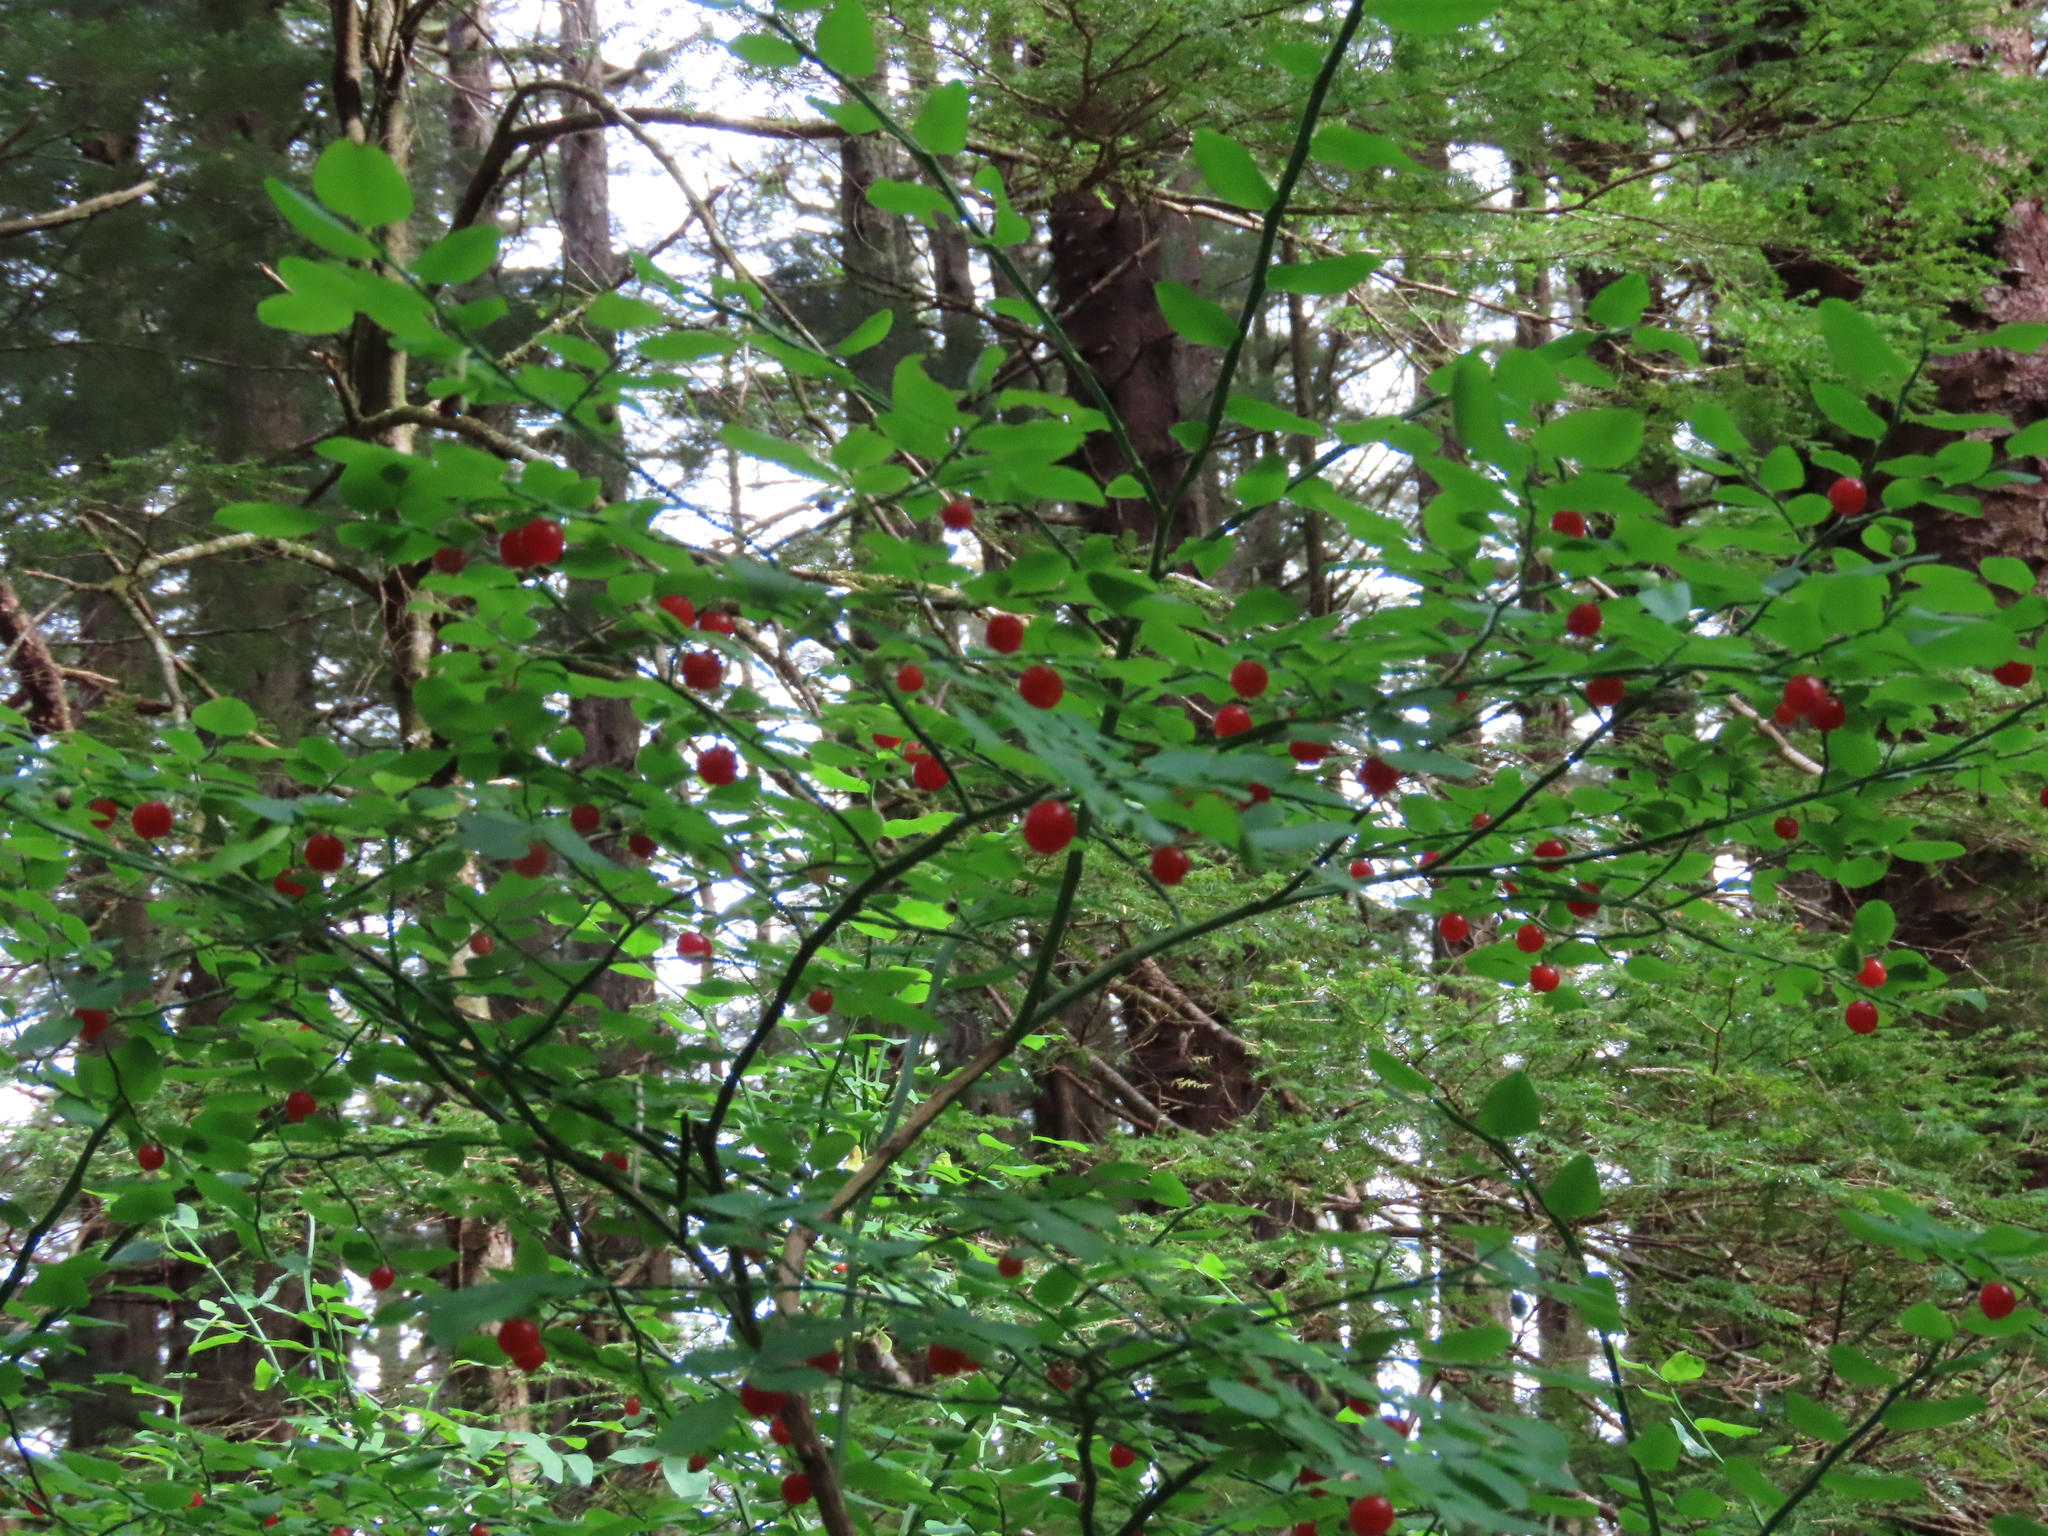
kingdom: Plantae
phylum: Tracheophyta
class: Magnoliopsida
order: Ericales
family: Ericaceae
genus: Vaccinium
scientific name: Vaccinium parvifolium
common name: Red-huckleberry
